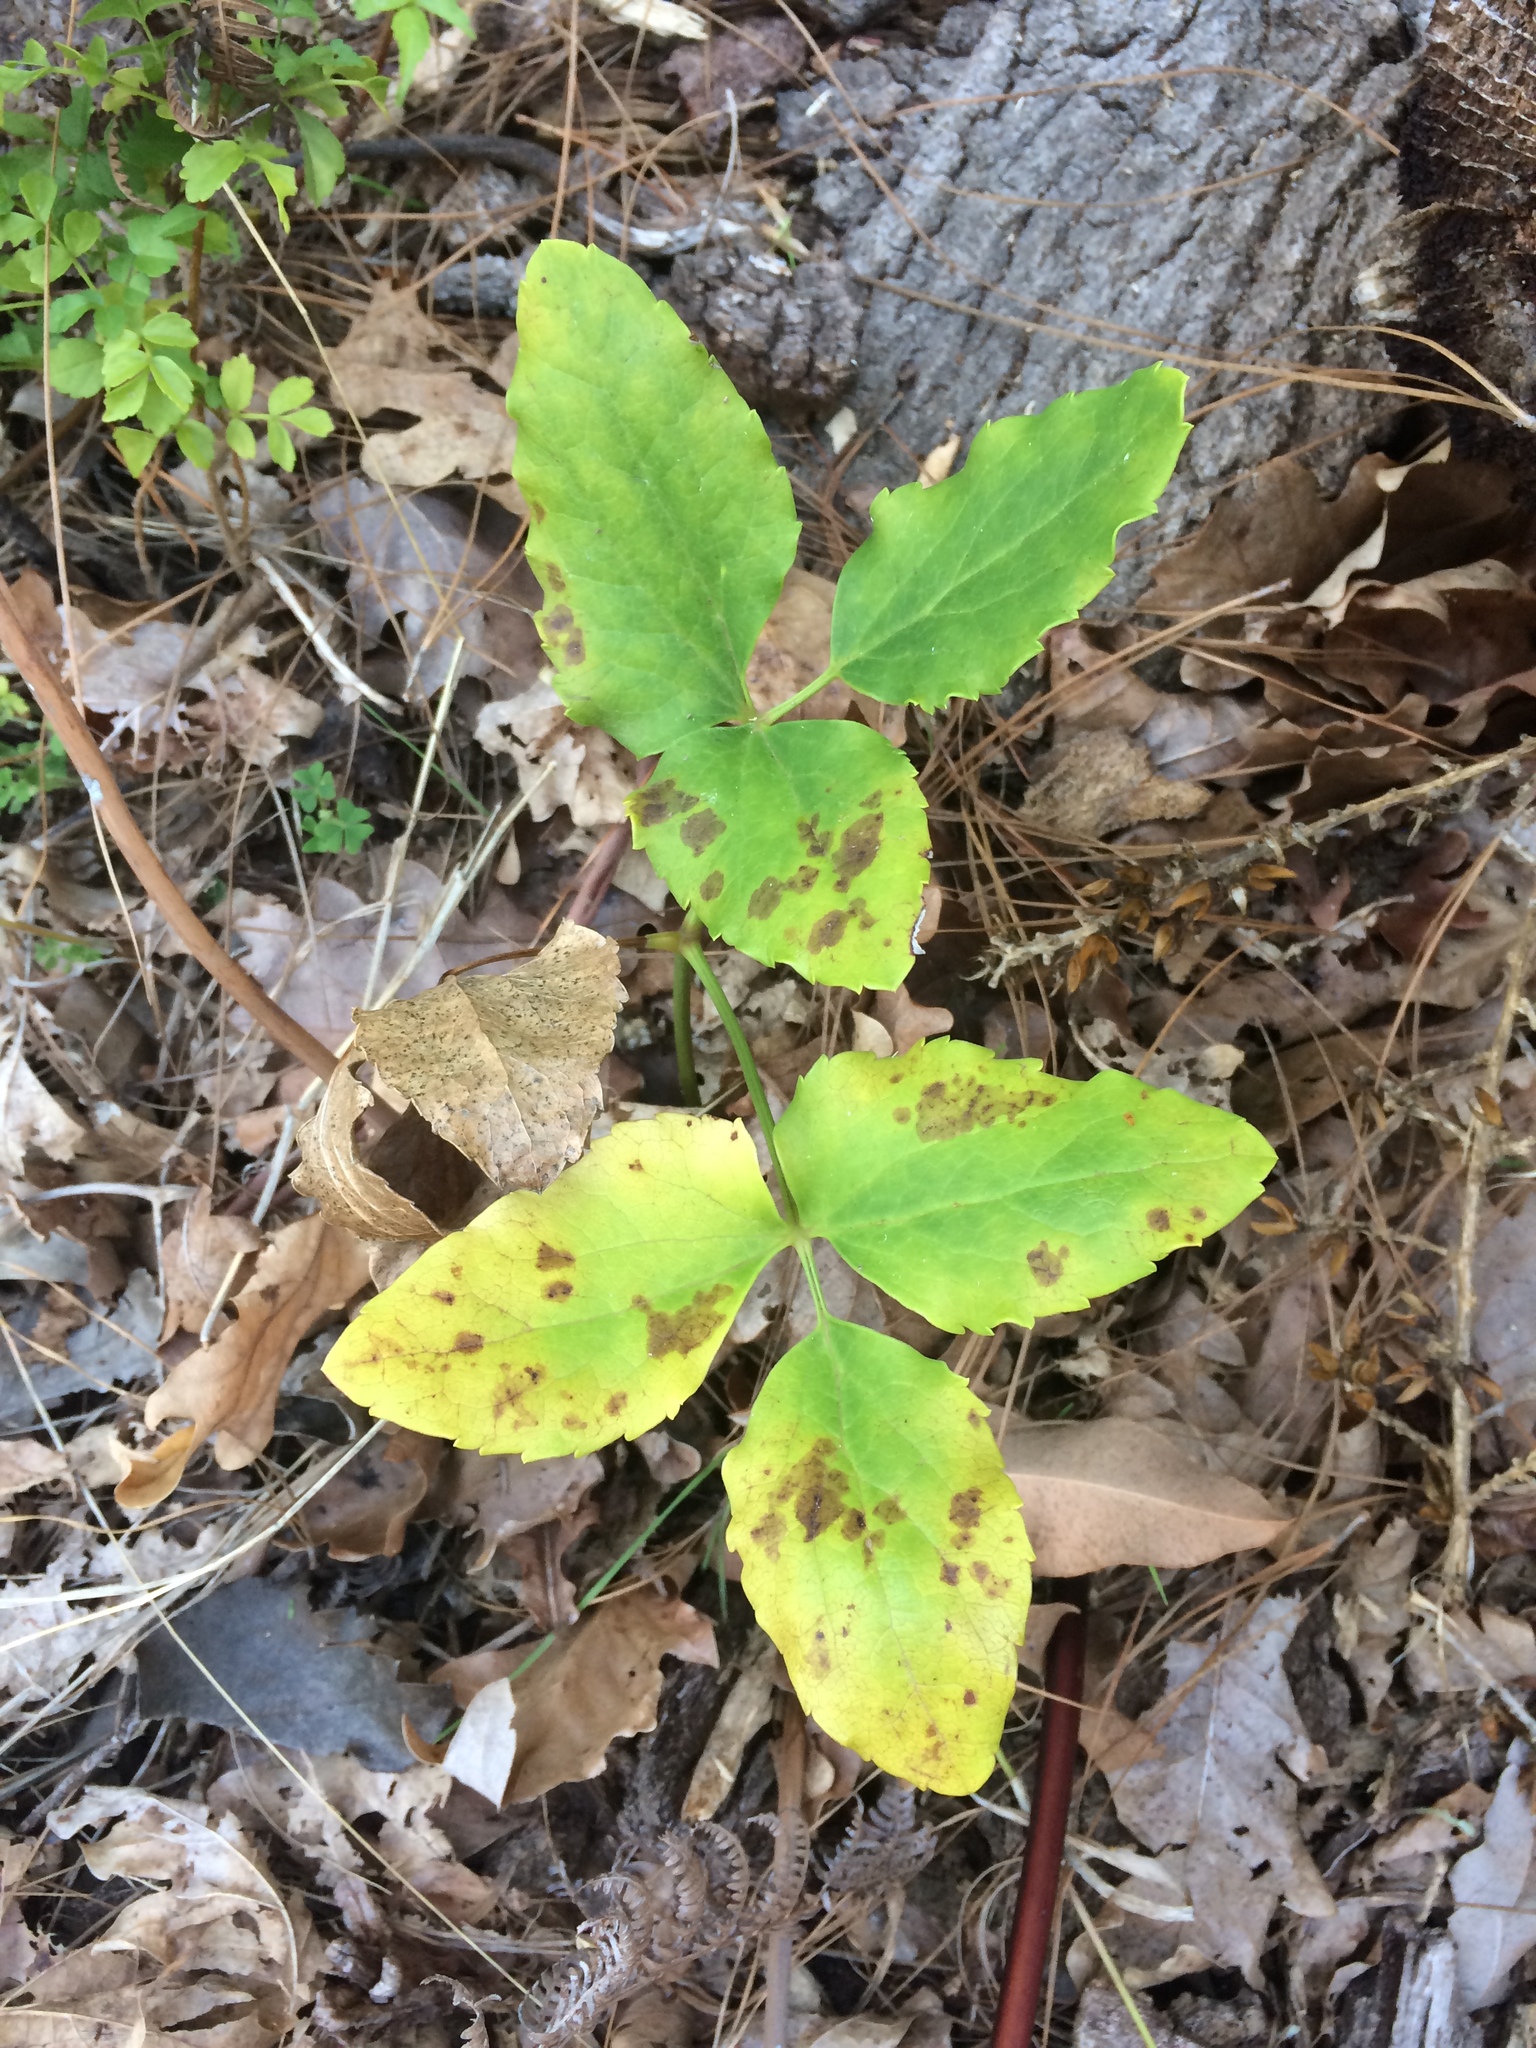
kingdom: Plantae
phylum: Tracheophyta
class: Magnoliopsida
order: Ranunculales
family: Ranunculaceae
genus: Knowltonia
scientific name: Knowltonia vesicatoria
